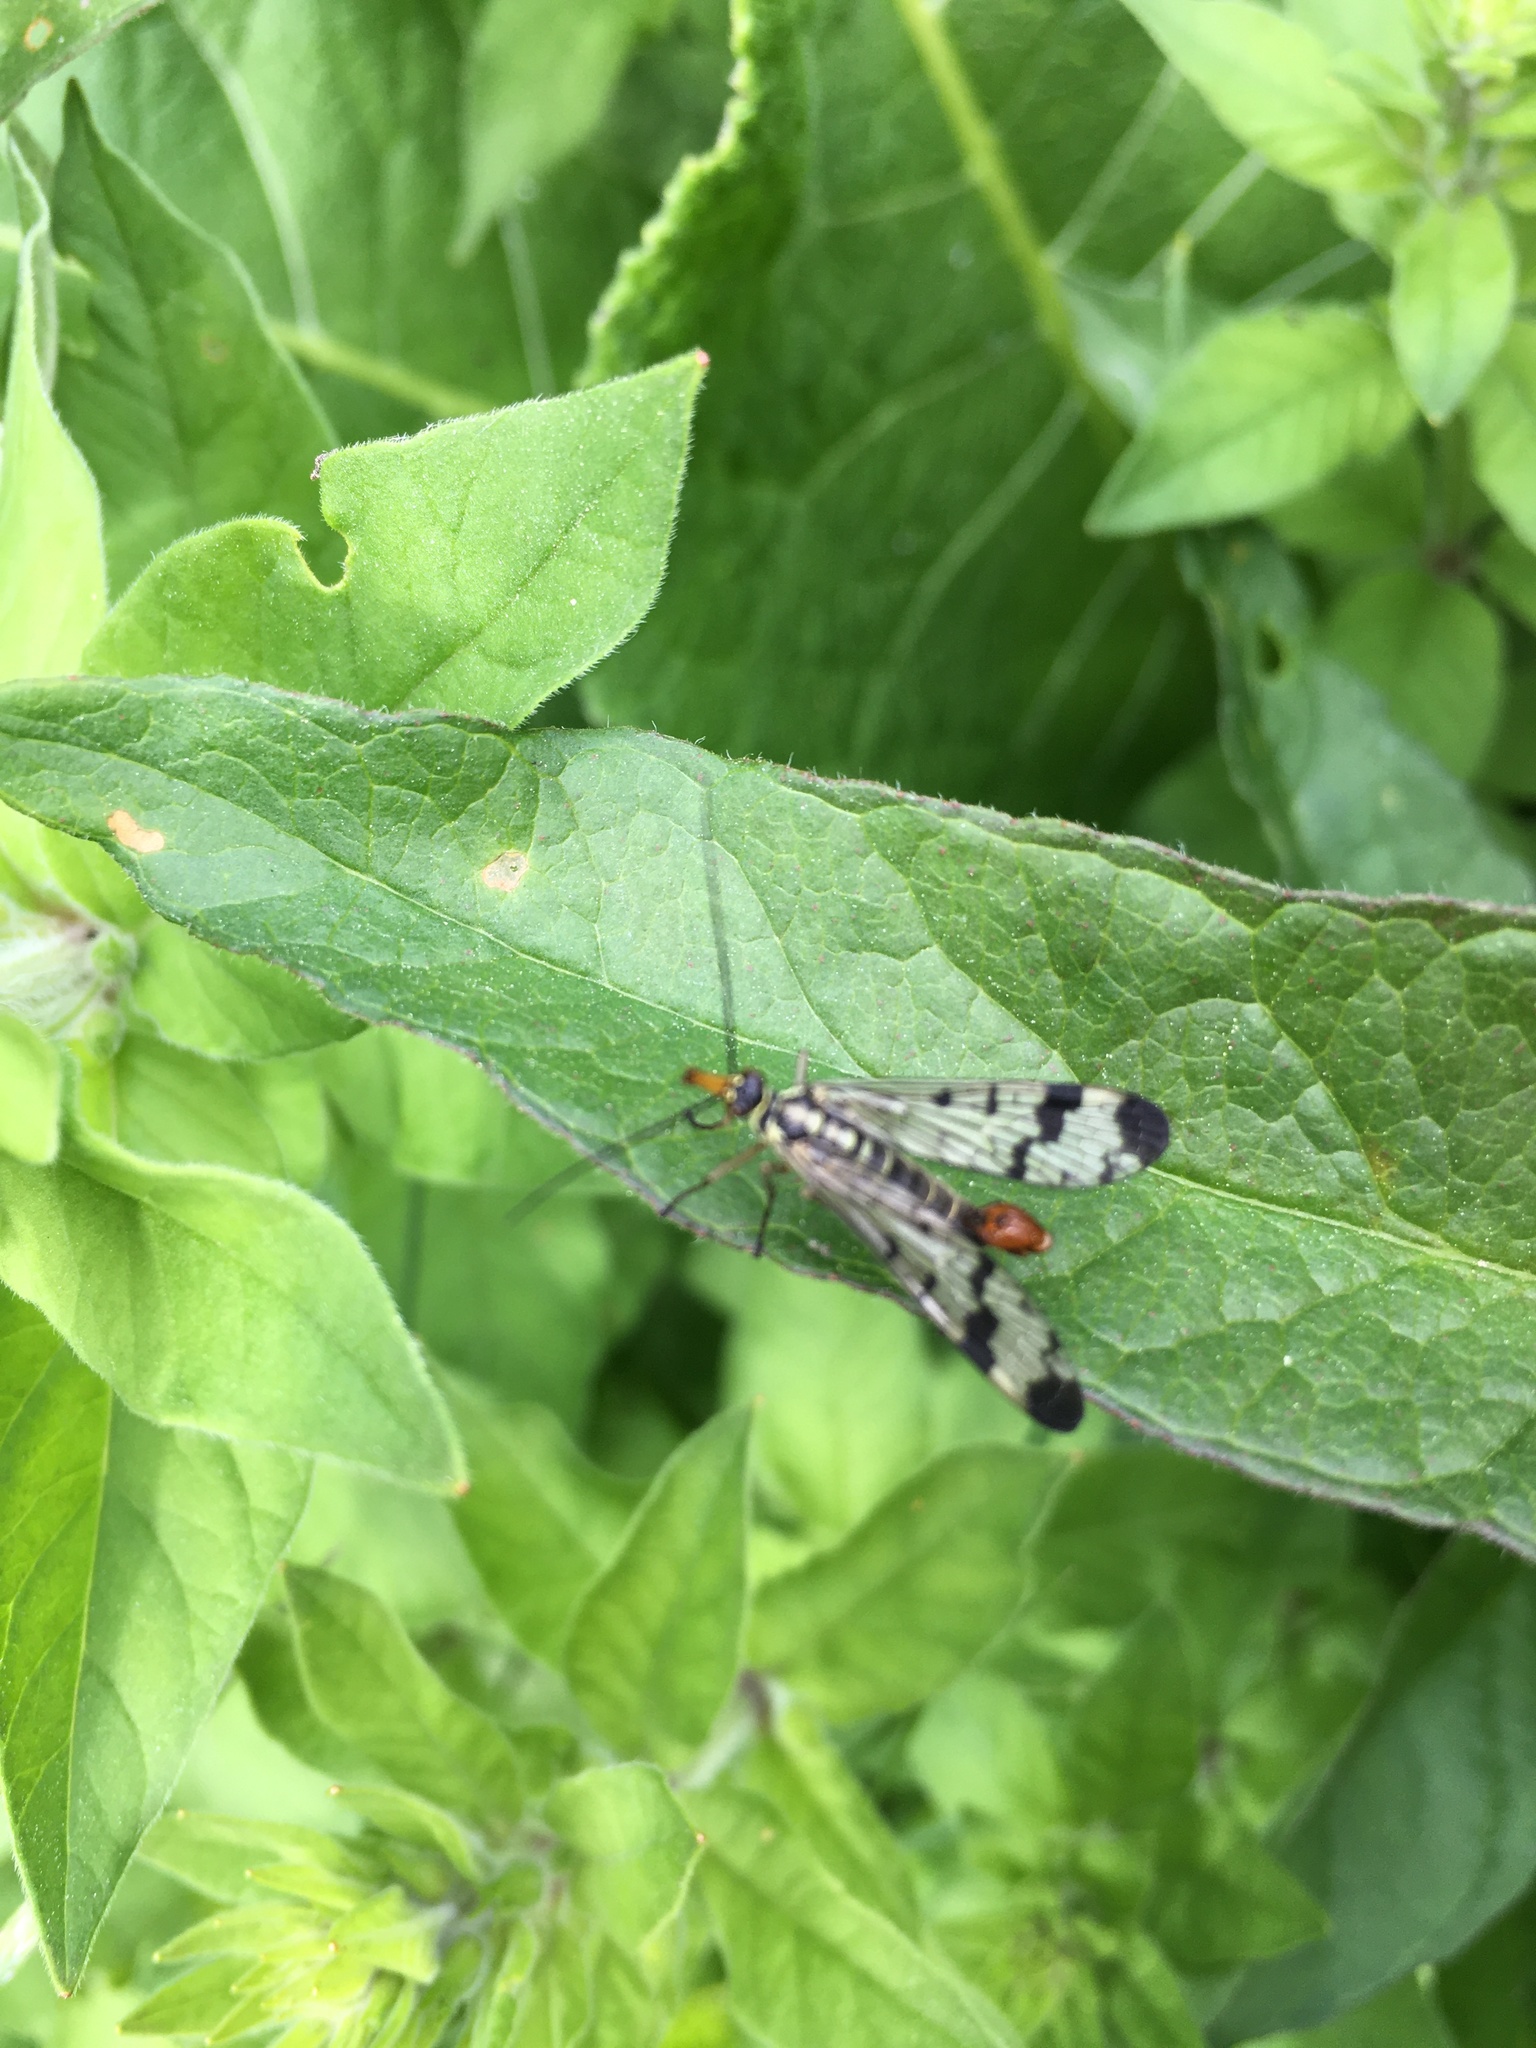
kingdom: Animalia
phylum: Arthropoda
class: Insecta
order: Mecoptera
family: Panorpidae
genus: Panorpa
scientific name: Panorpa communis
